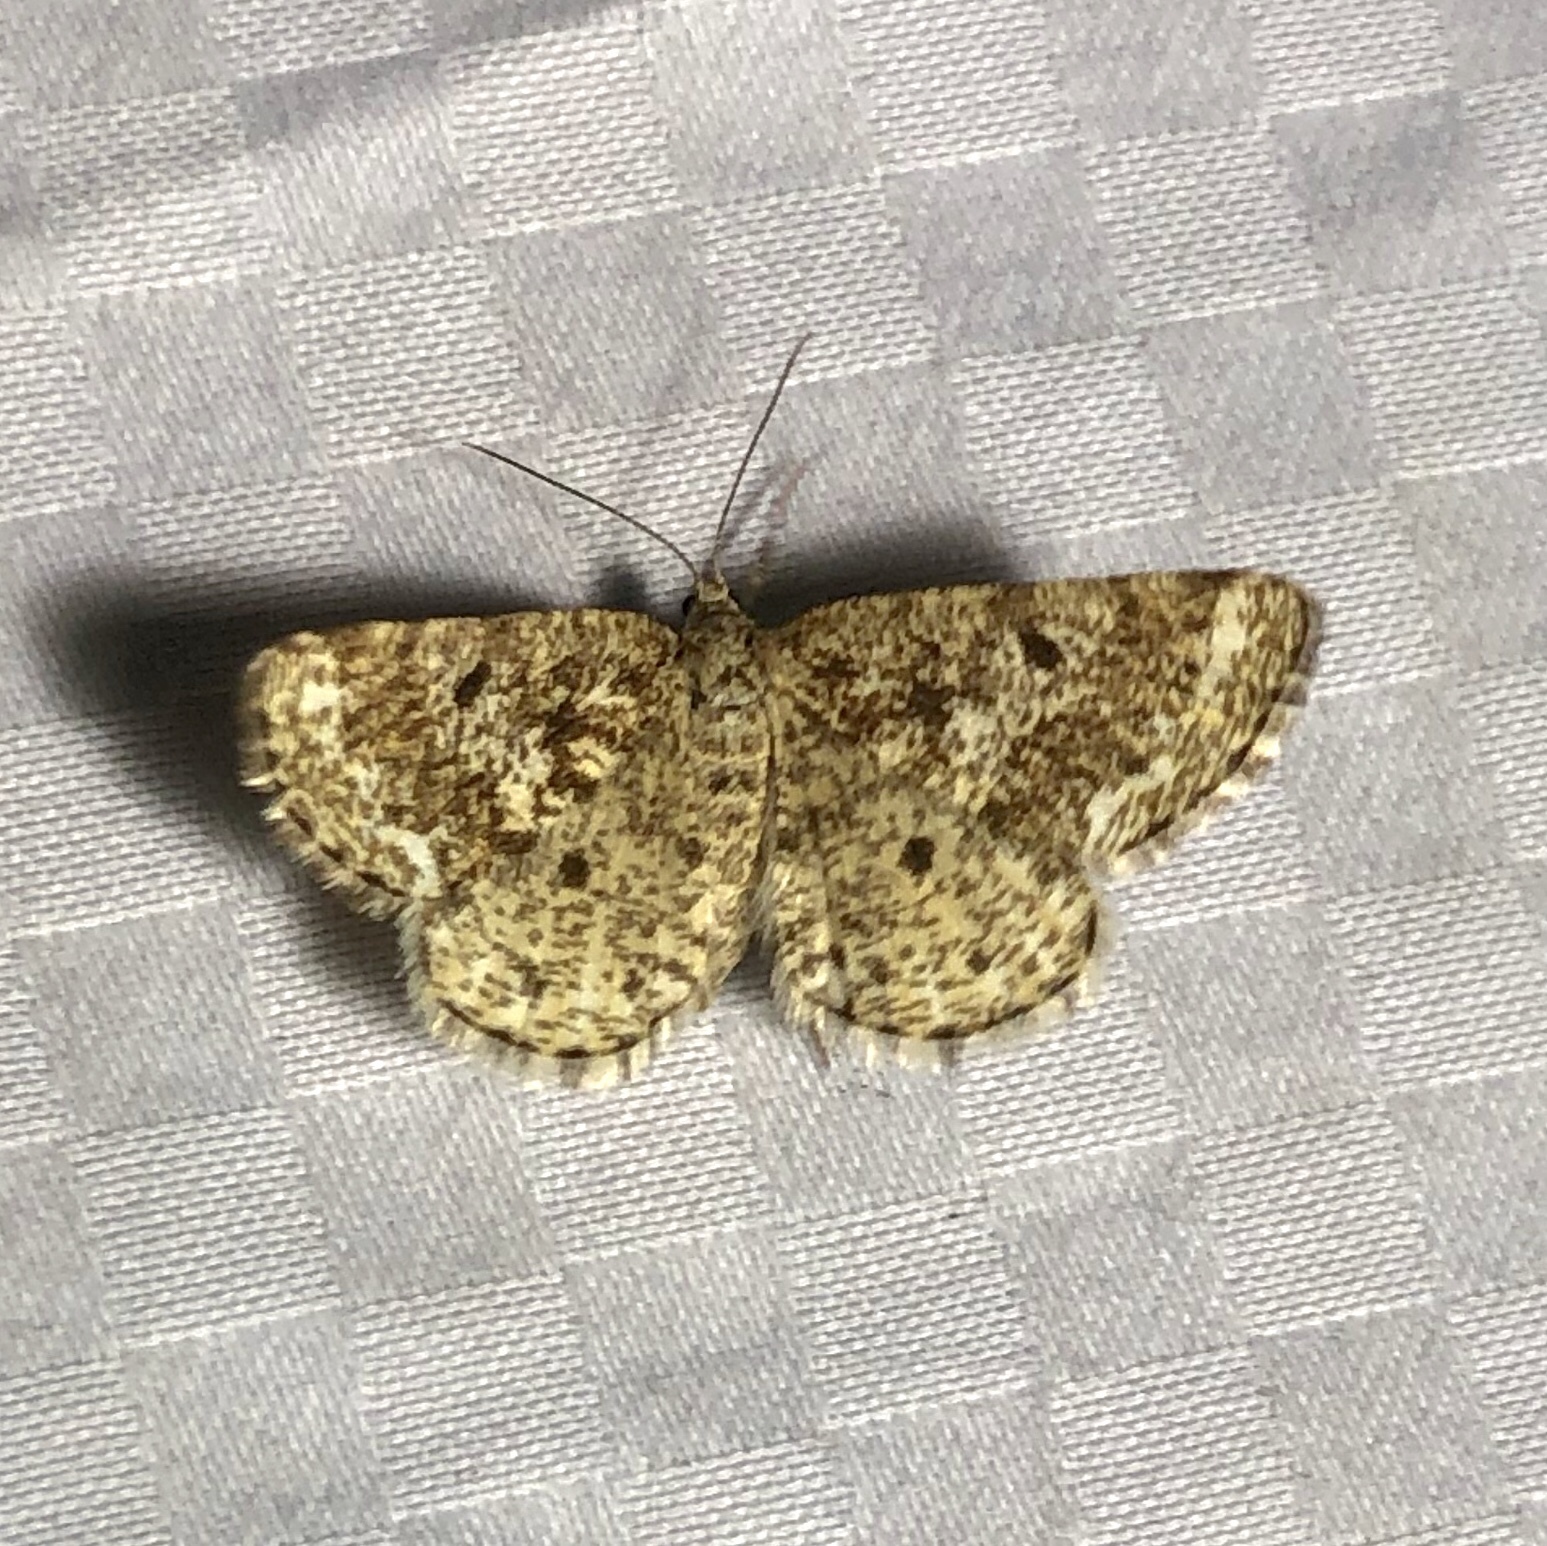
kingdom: Animalia
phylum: Arthropoda
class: Insecta
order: Lepidoptera
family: Geometridae
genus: Eufidonia
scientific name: Eufidonia notataria
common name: Powder moth
